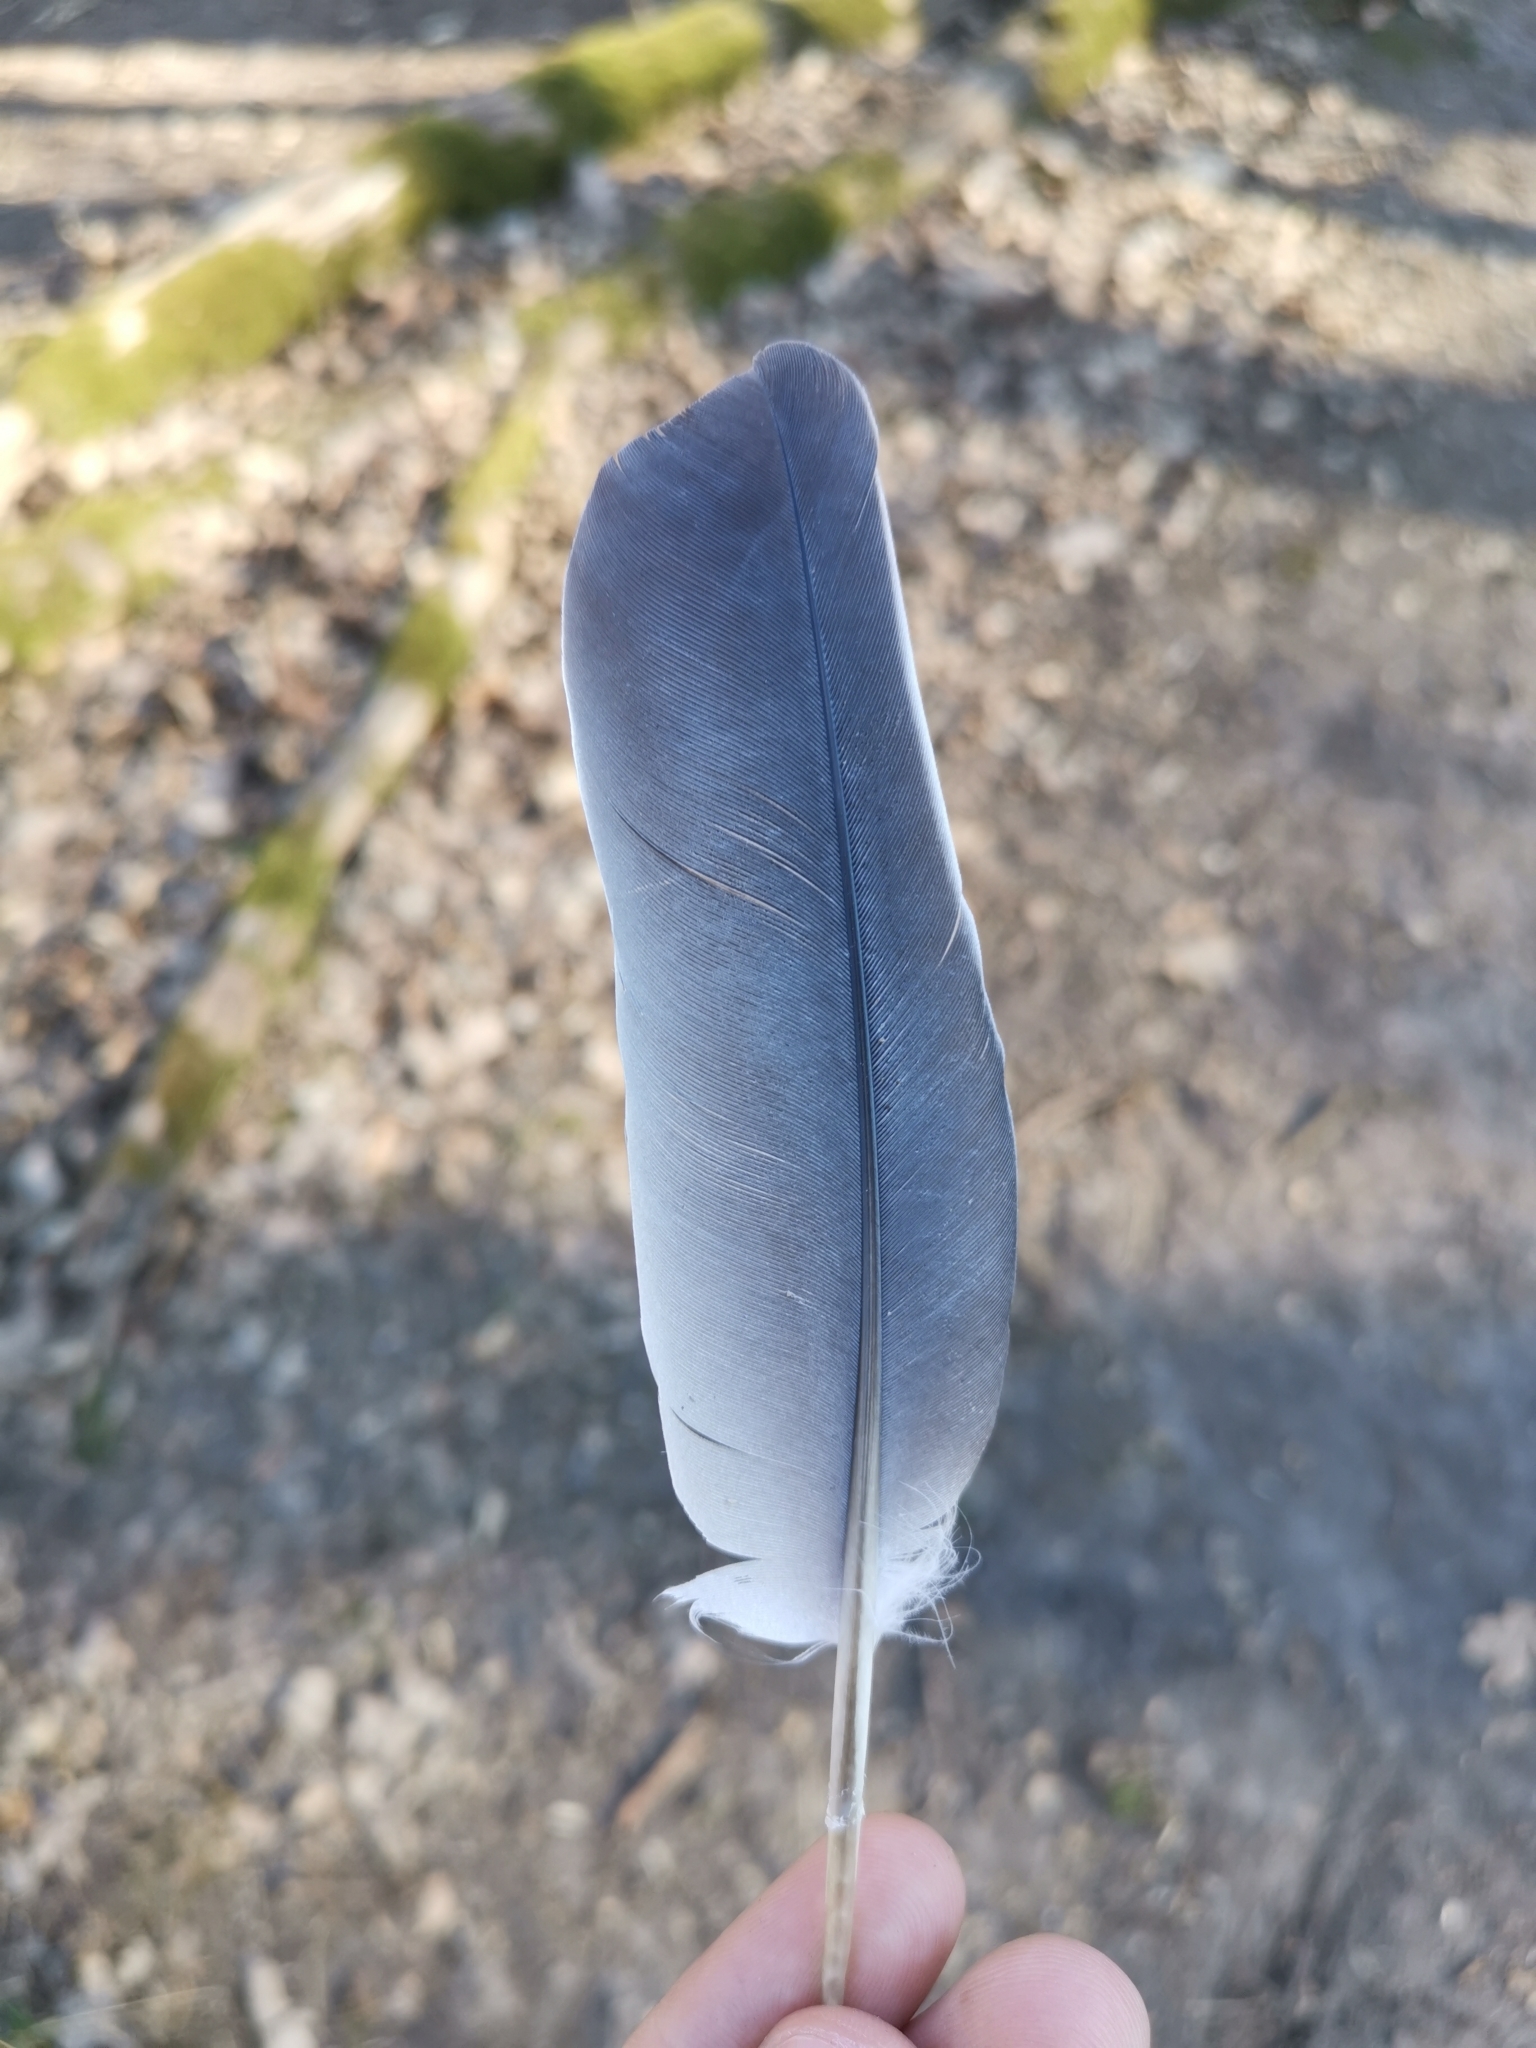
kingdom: Animalia
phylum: Chordata
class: Aves
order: Columbiformes
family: Columbidae
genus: Columba
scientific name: Columba palumbus
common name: Common wood pigeon
